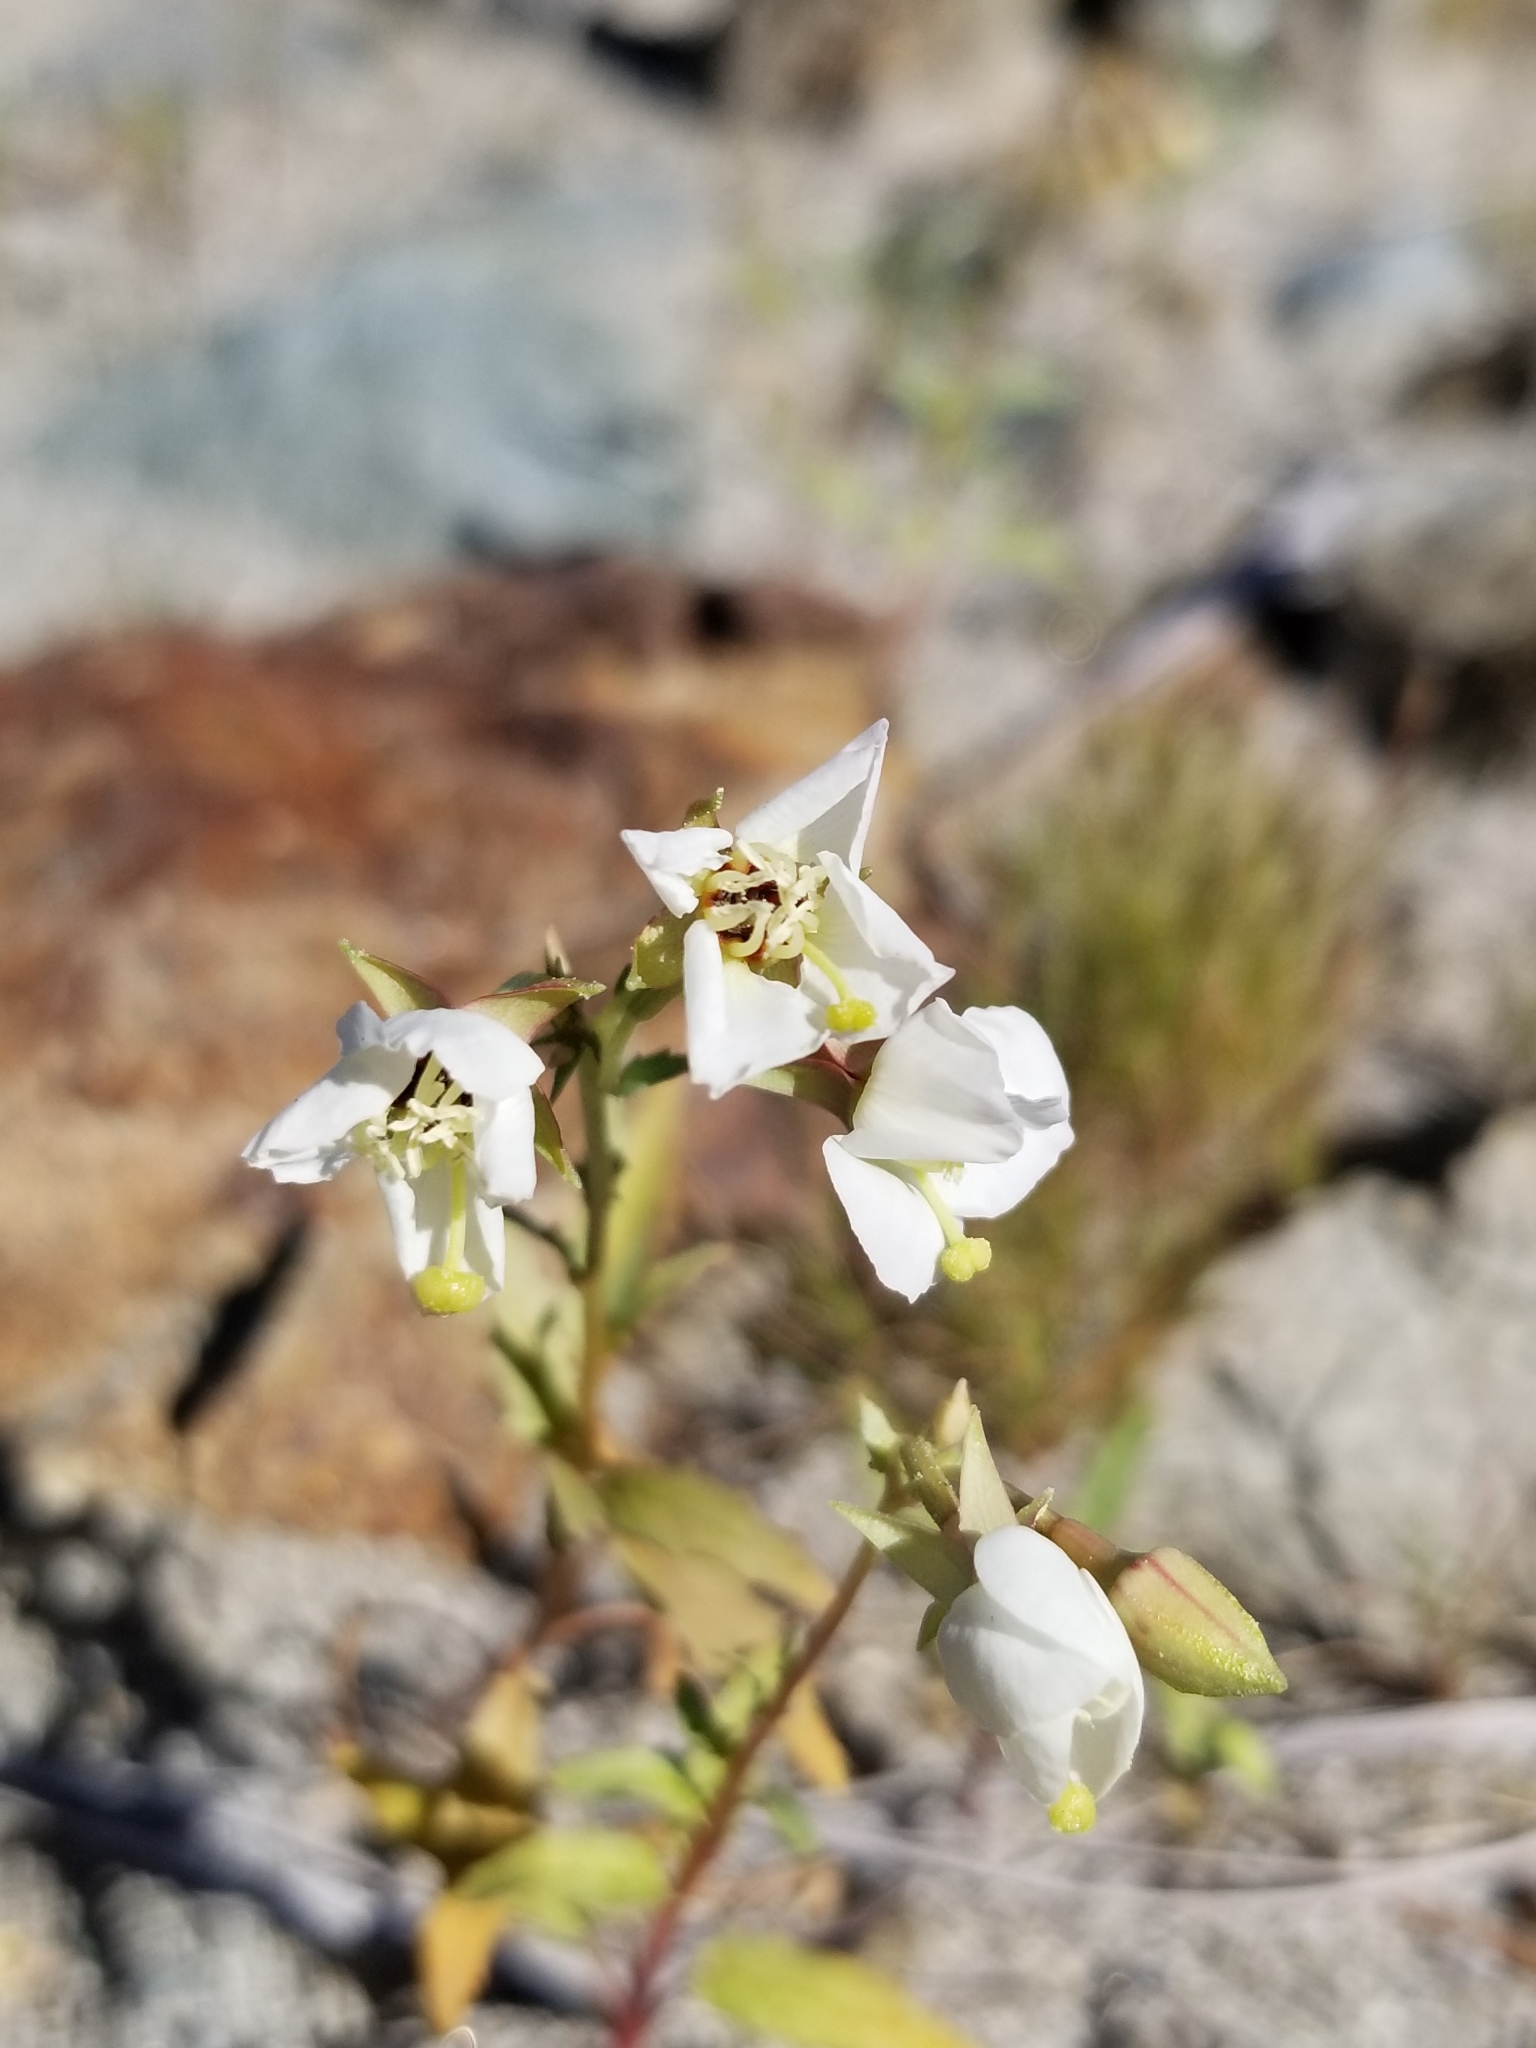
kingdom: Plantae
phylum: Tracheophyta
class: Magnoliopsida
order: Myrtales
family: Onagraceae
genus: Chylismia
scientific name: Chylismia claviformis
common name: Browneyes
